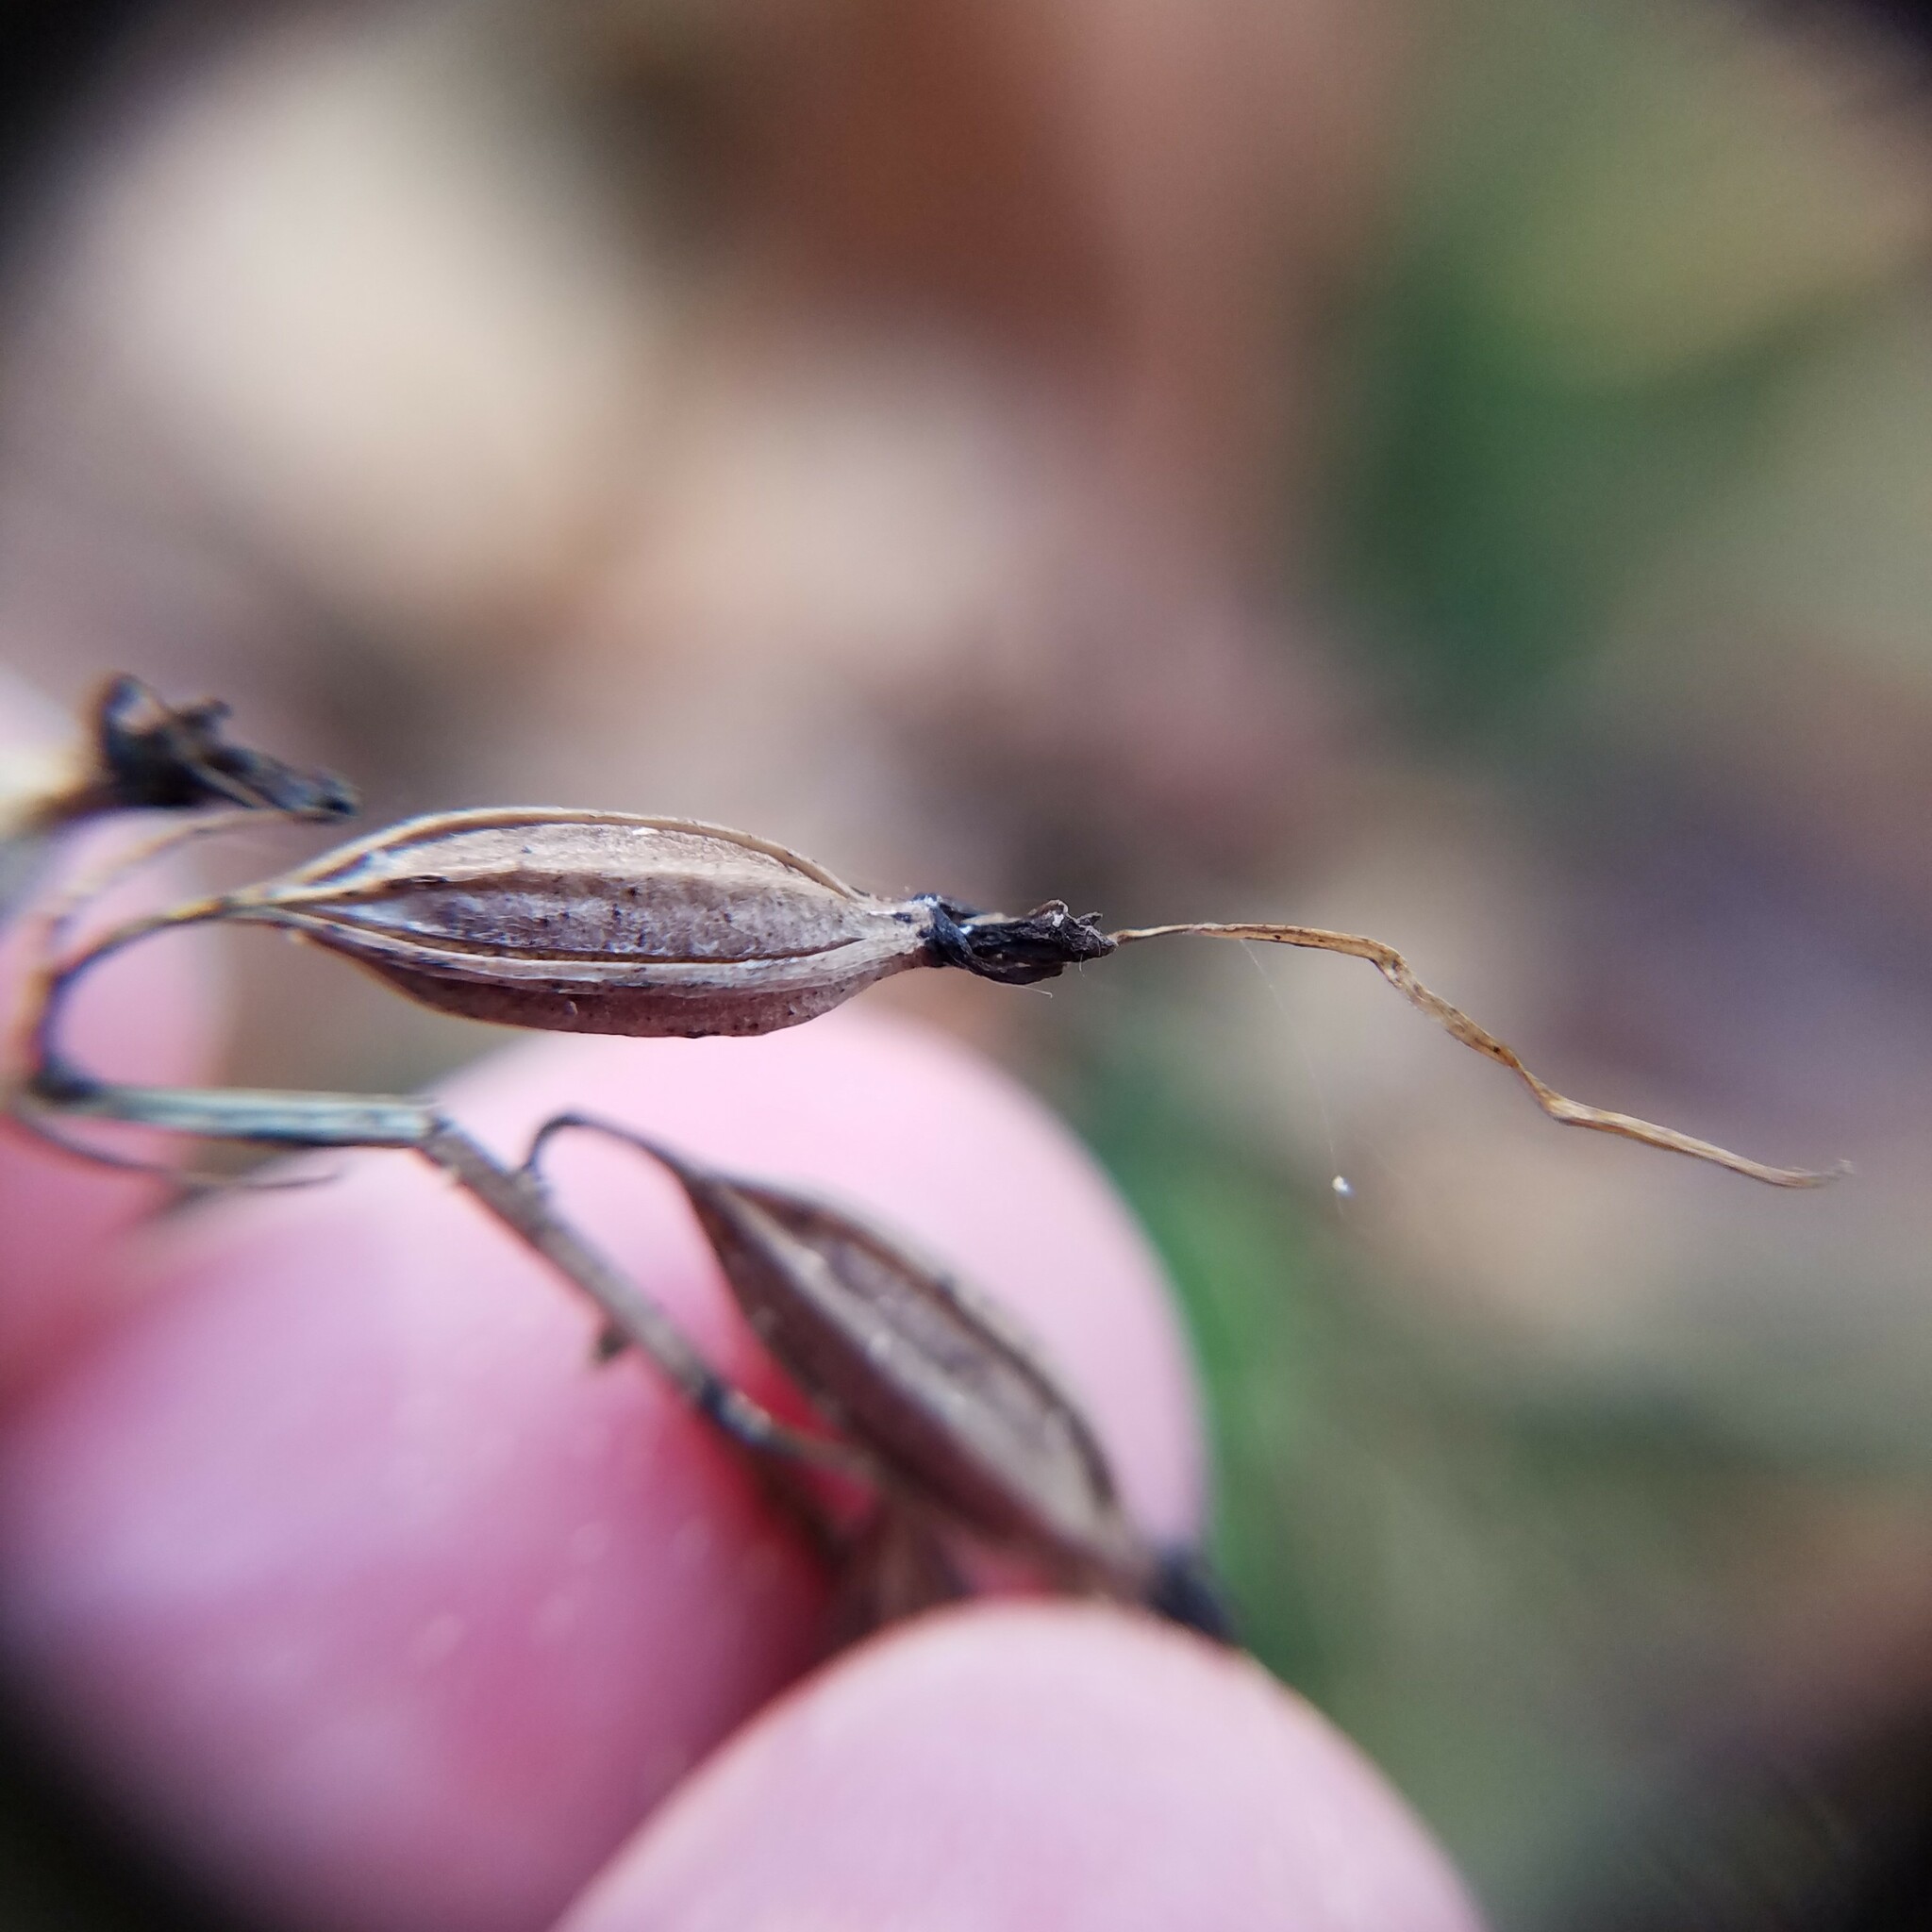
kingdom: Plantae
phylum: Tracheophyta
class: Liliopsida
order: Asparagales
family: Orchidaceae
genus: Tipularia
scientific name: Tipularia discolor
